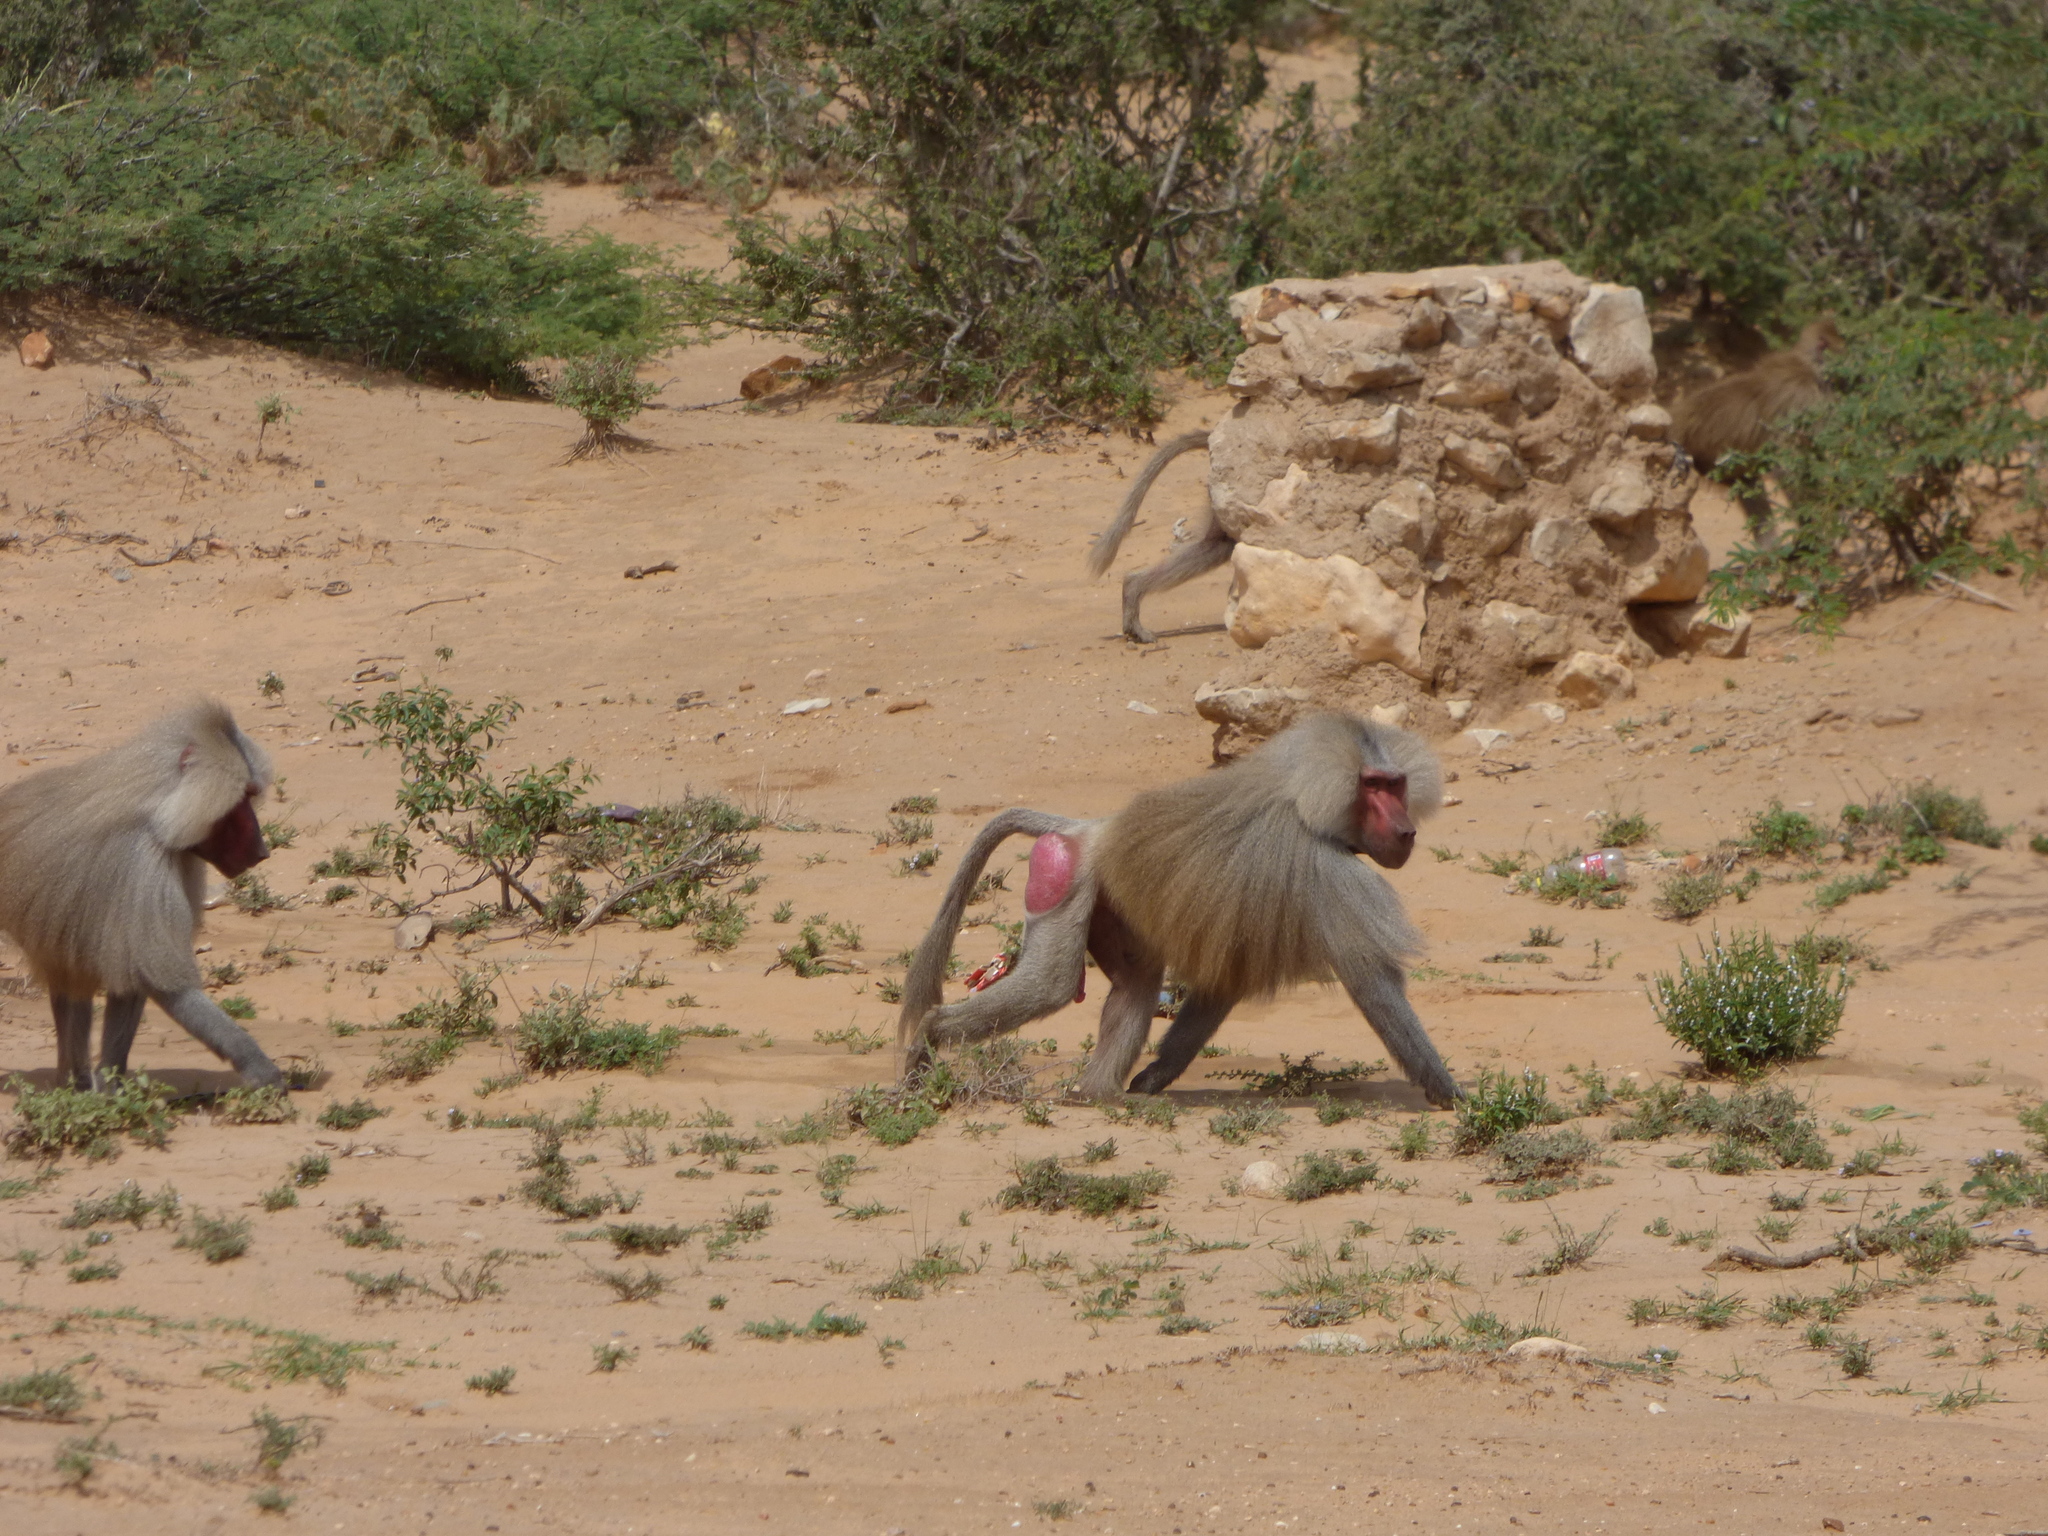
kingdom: Animalia
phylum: Chordata
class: Mammalia
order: Primates
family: Cercopithecidae
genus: Papio
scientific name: Papio hamadryas
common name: Hamadryas baboon
